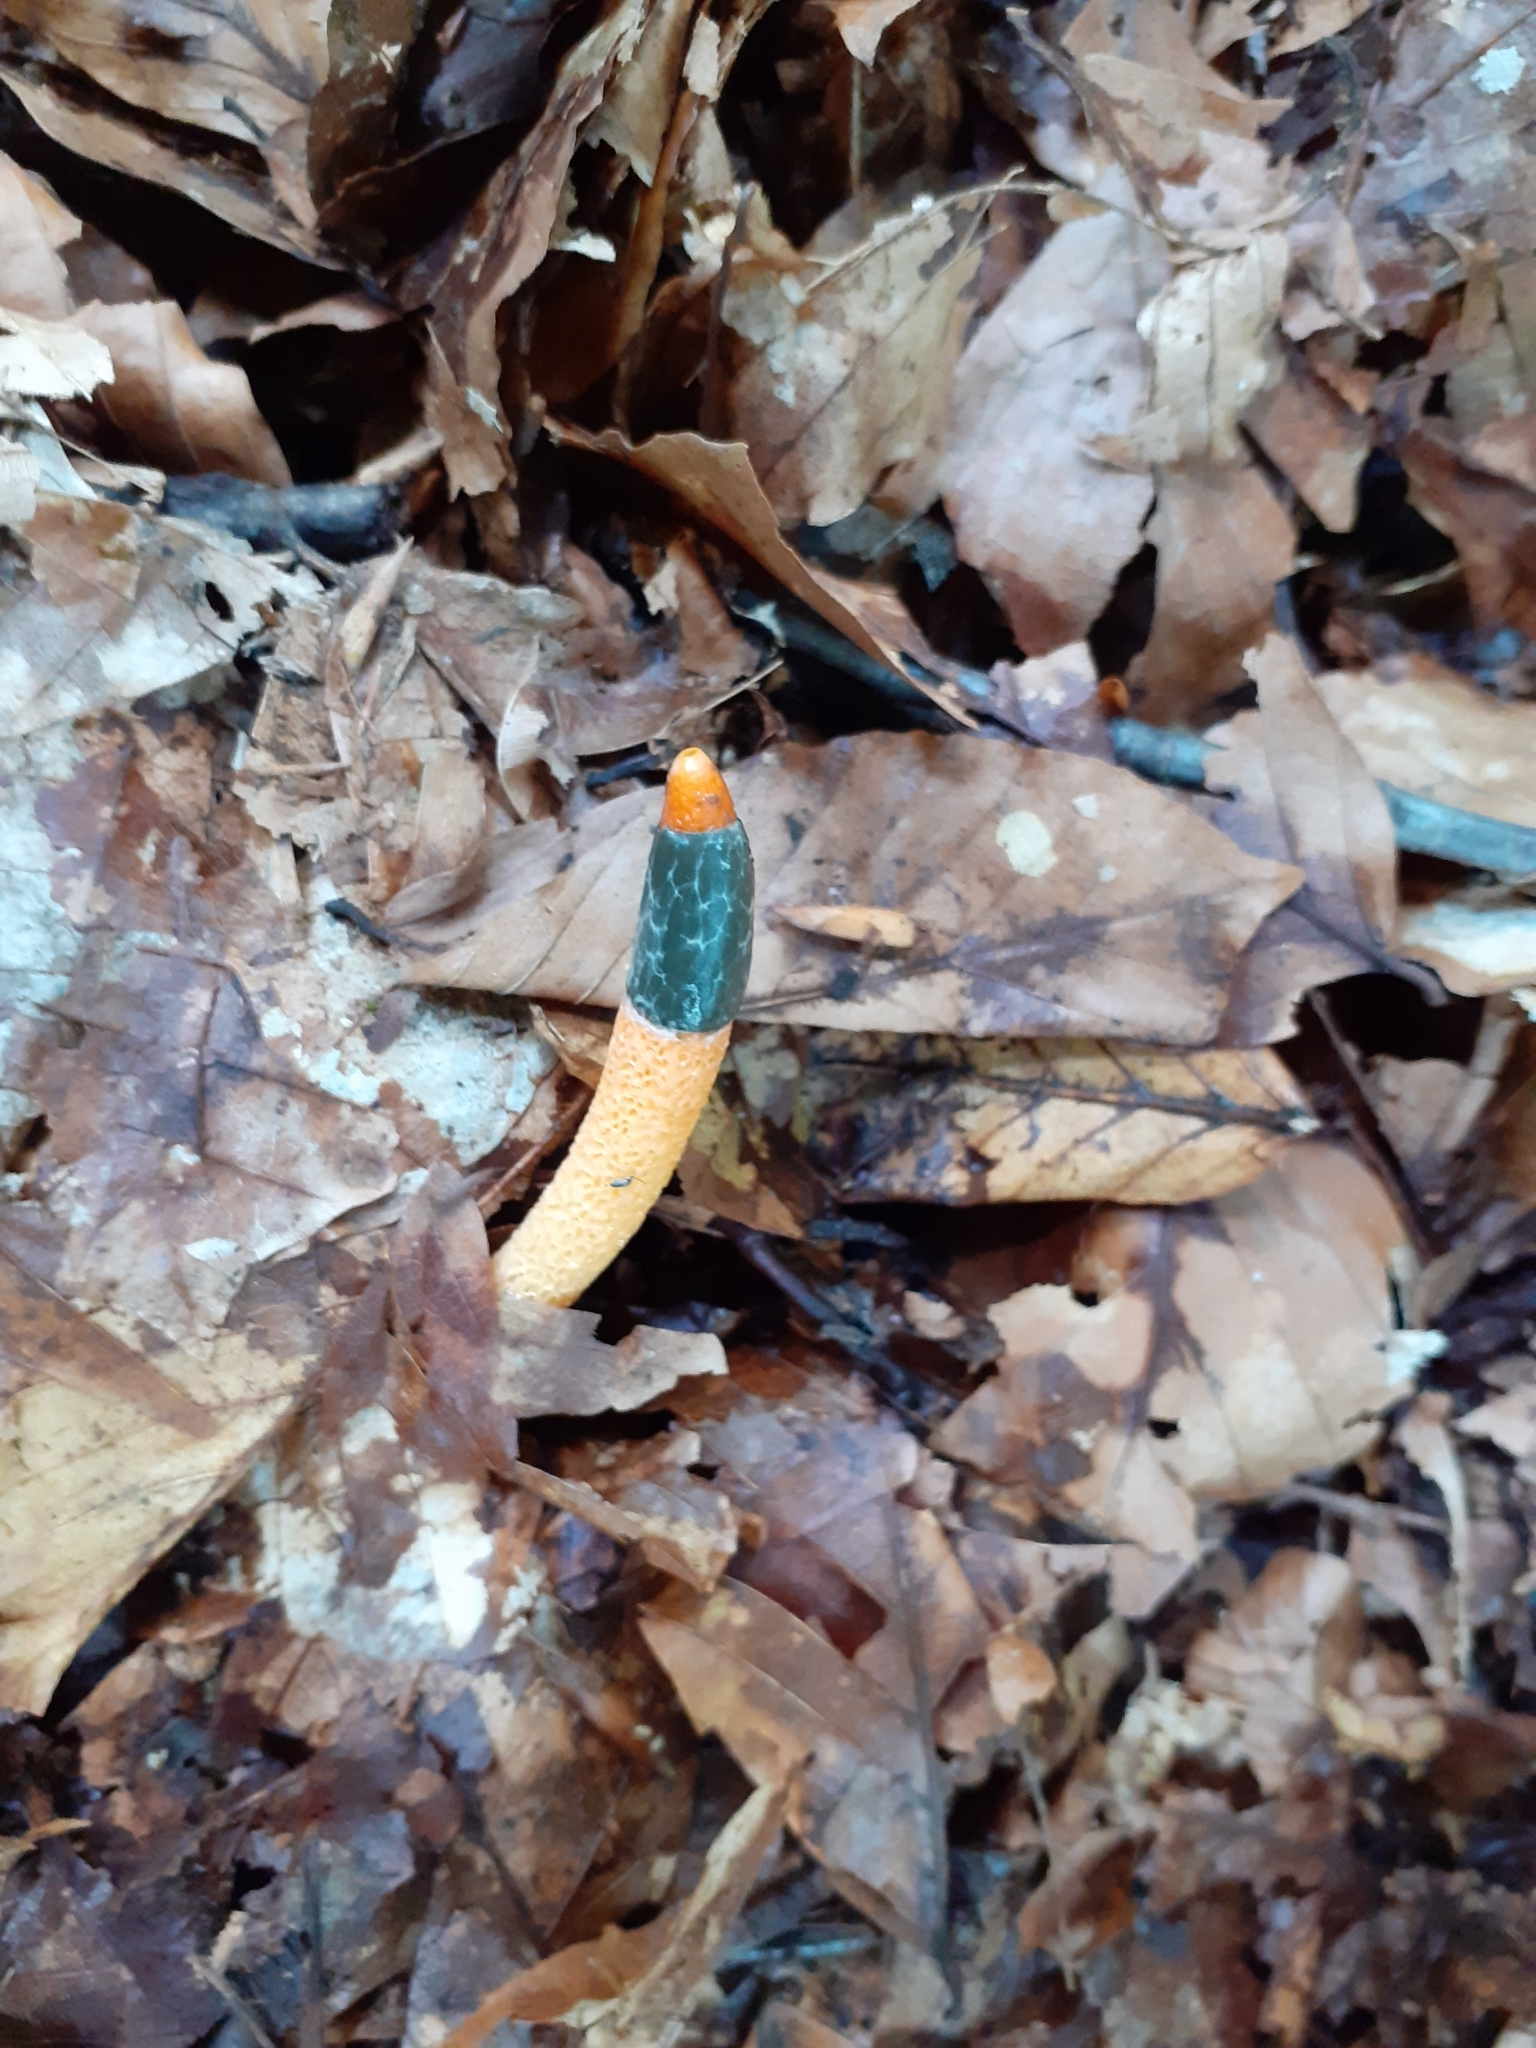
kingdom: Fungi
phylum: Basidiomycota
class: Agaricomycetes
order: Phallales
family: Phallaceae
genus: Mutinus
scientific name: Mutinus caninus
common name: Dog stinkhorn
